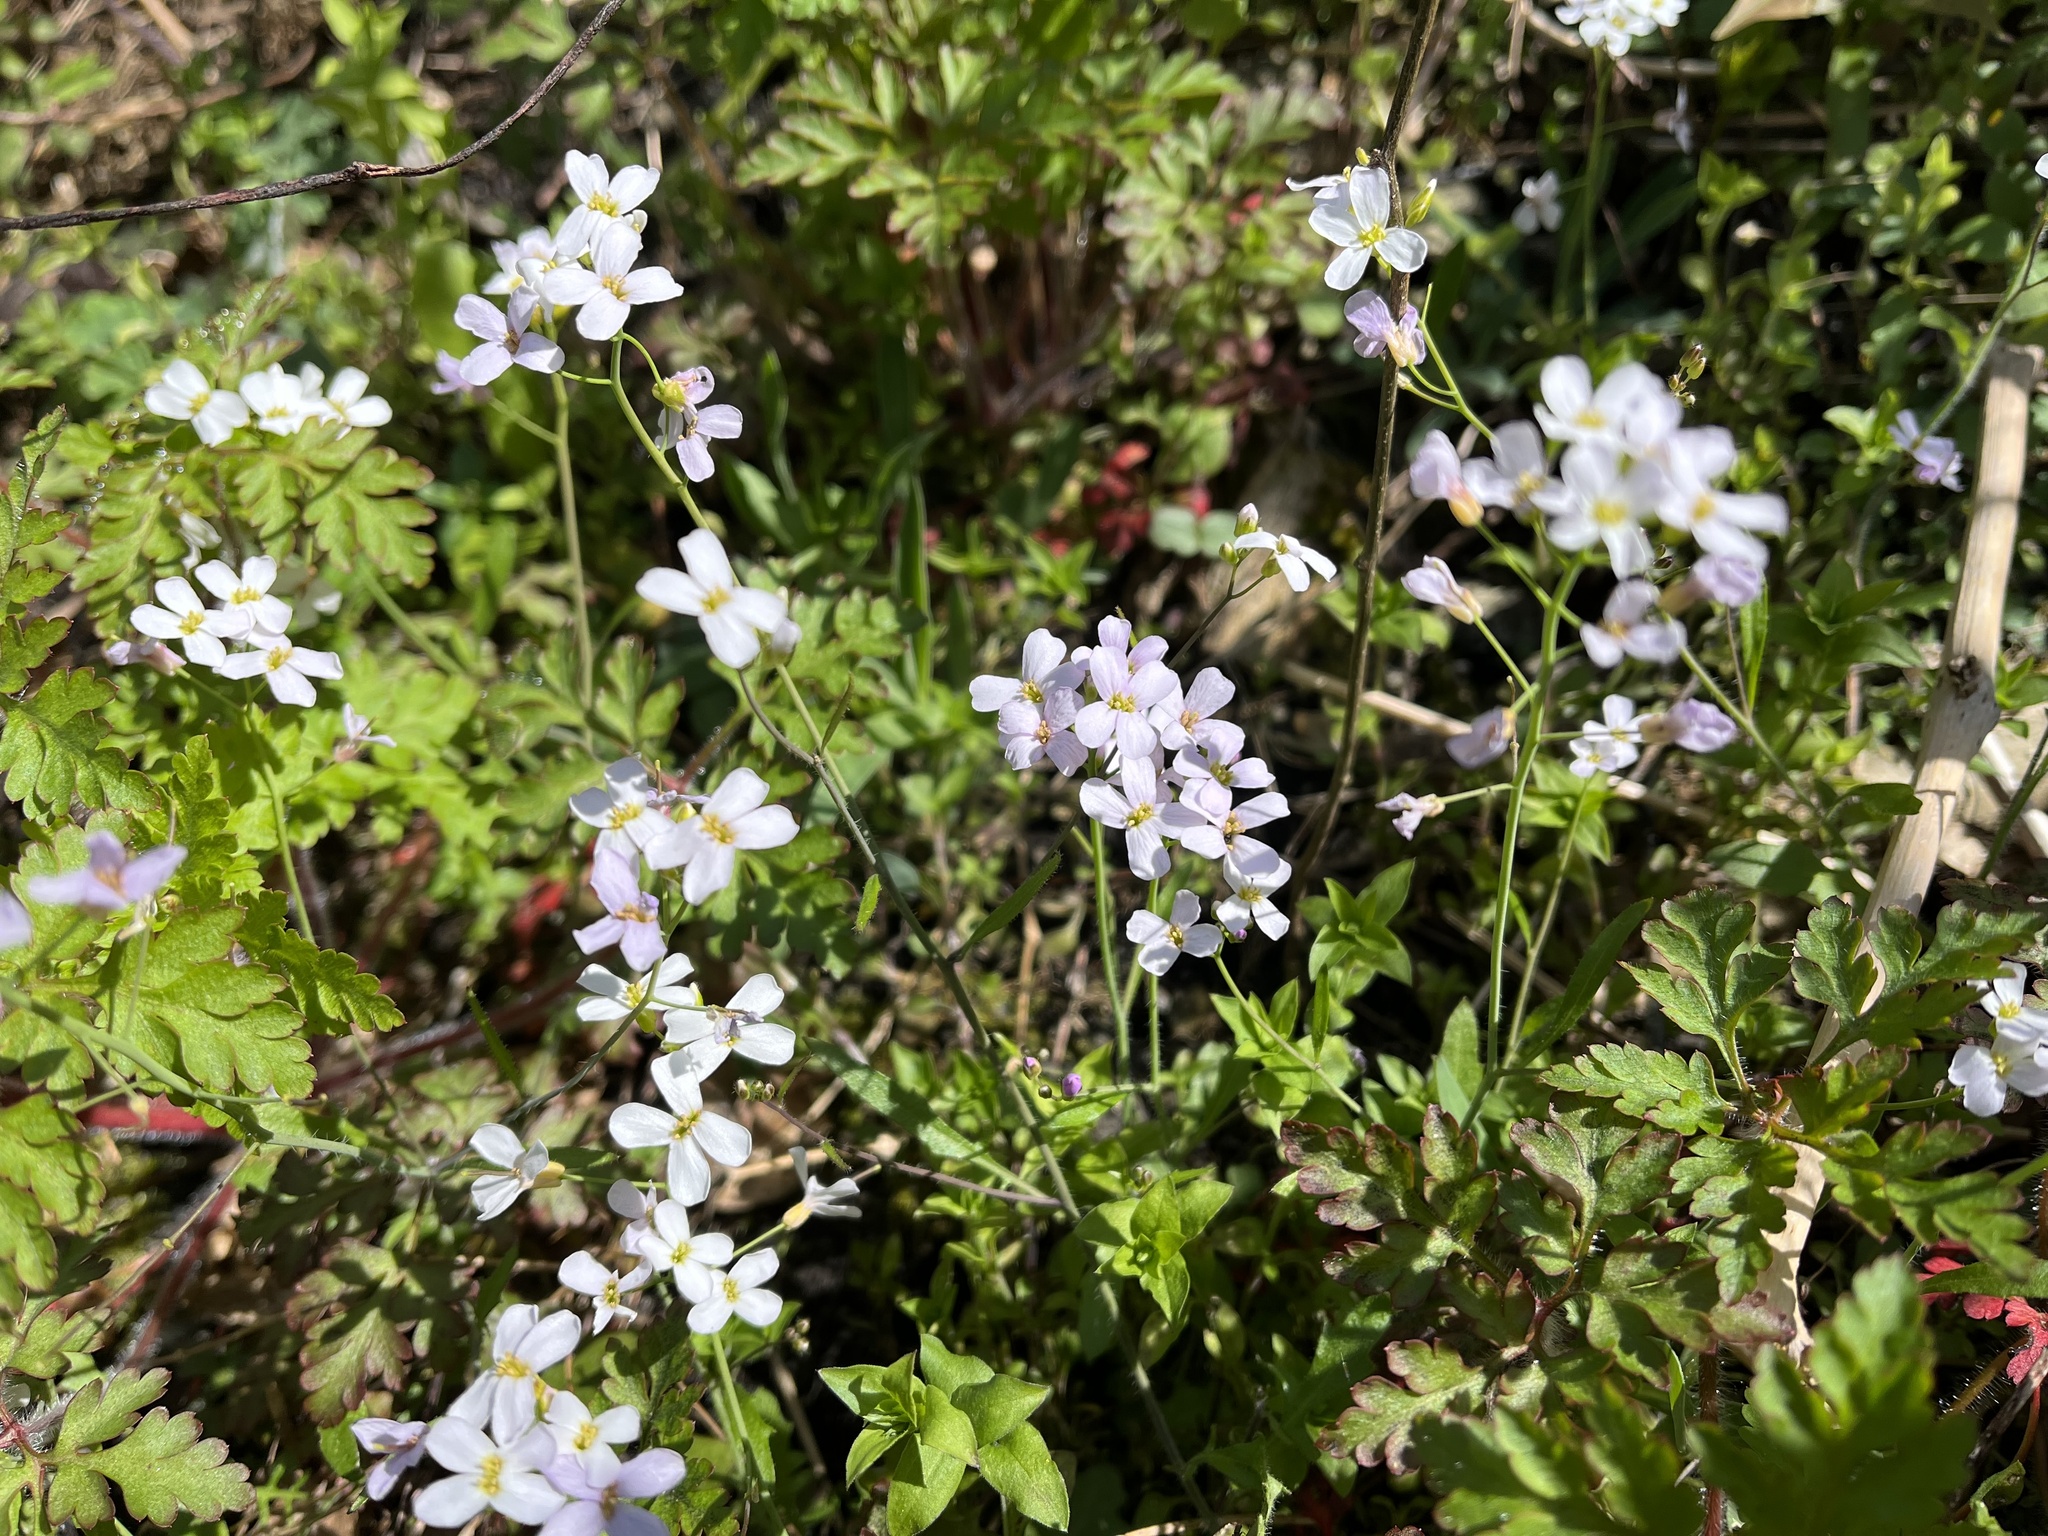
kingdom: Plantae
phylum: Tracheophyta
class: Magnoliopsida
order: Brassicales
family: Brassicaceae
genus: Arabidopsis
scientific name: Arabidopsis arenosa
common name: Sand rock-cress
